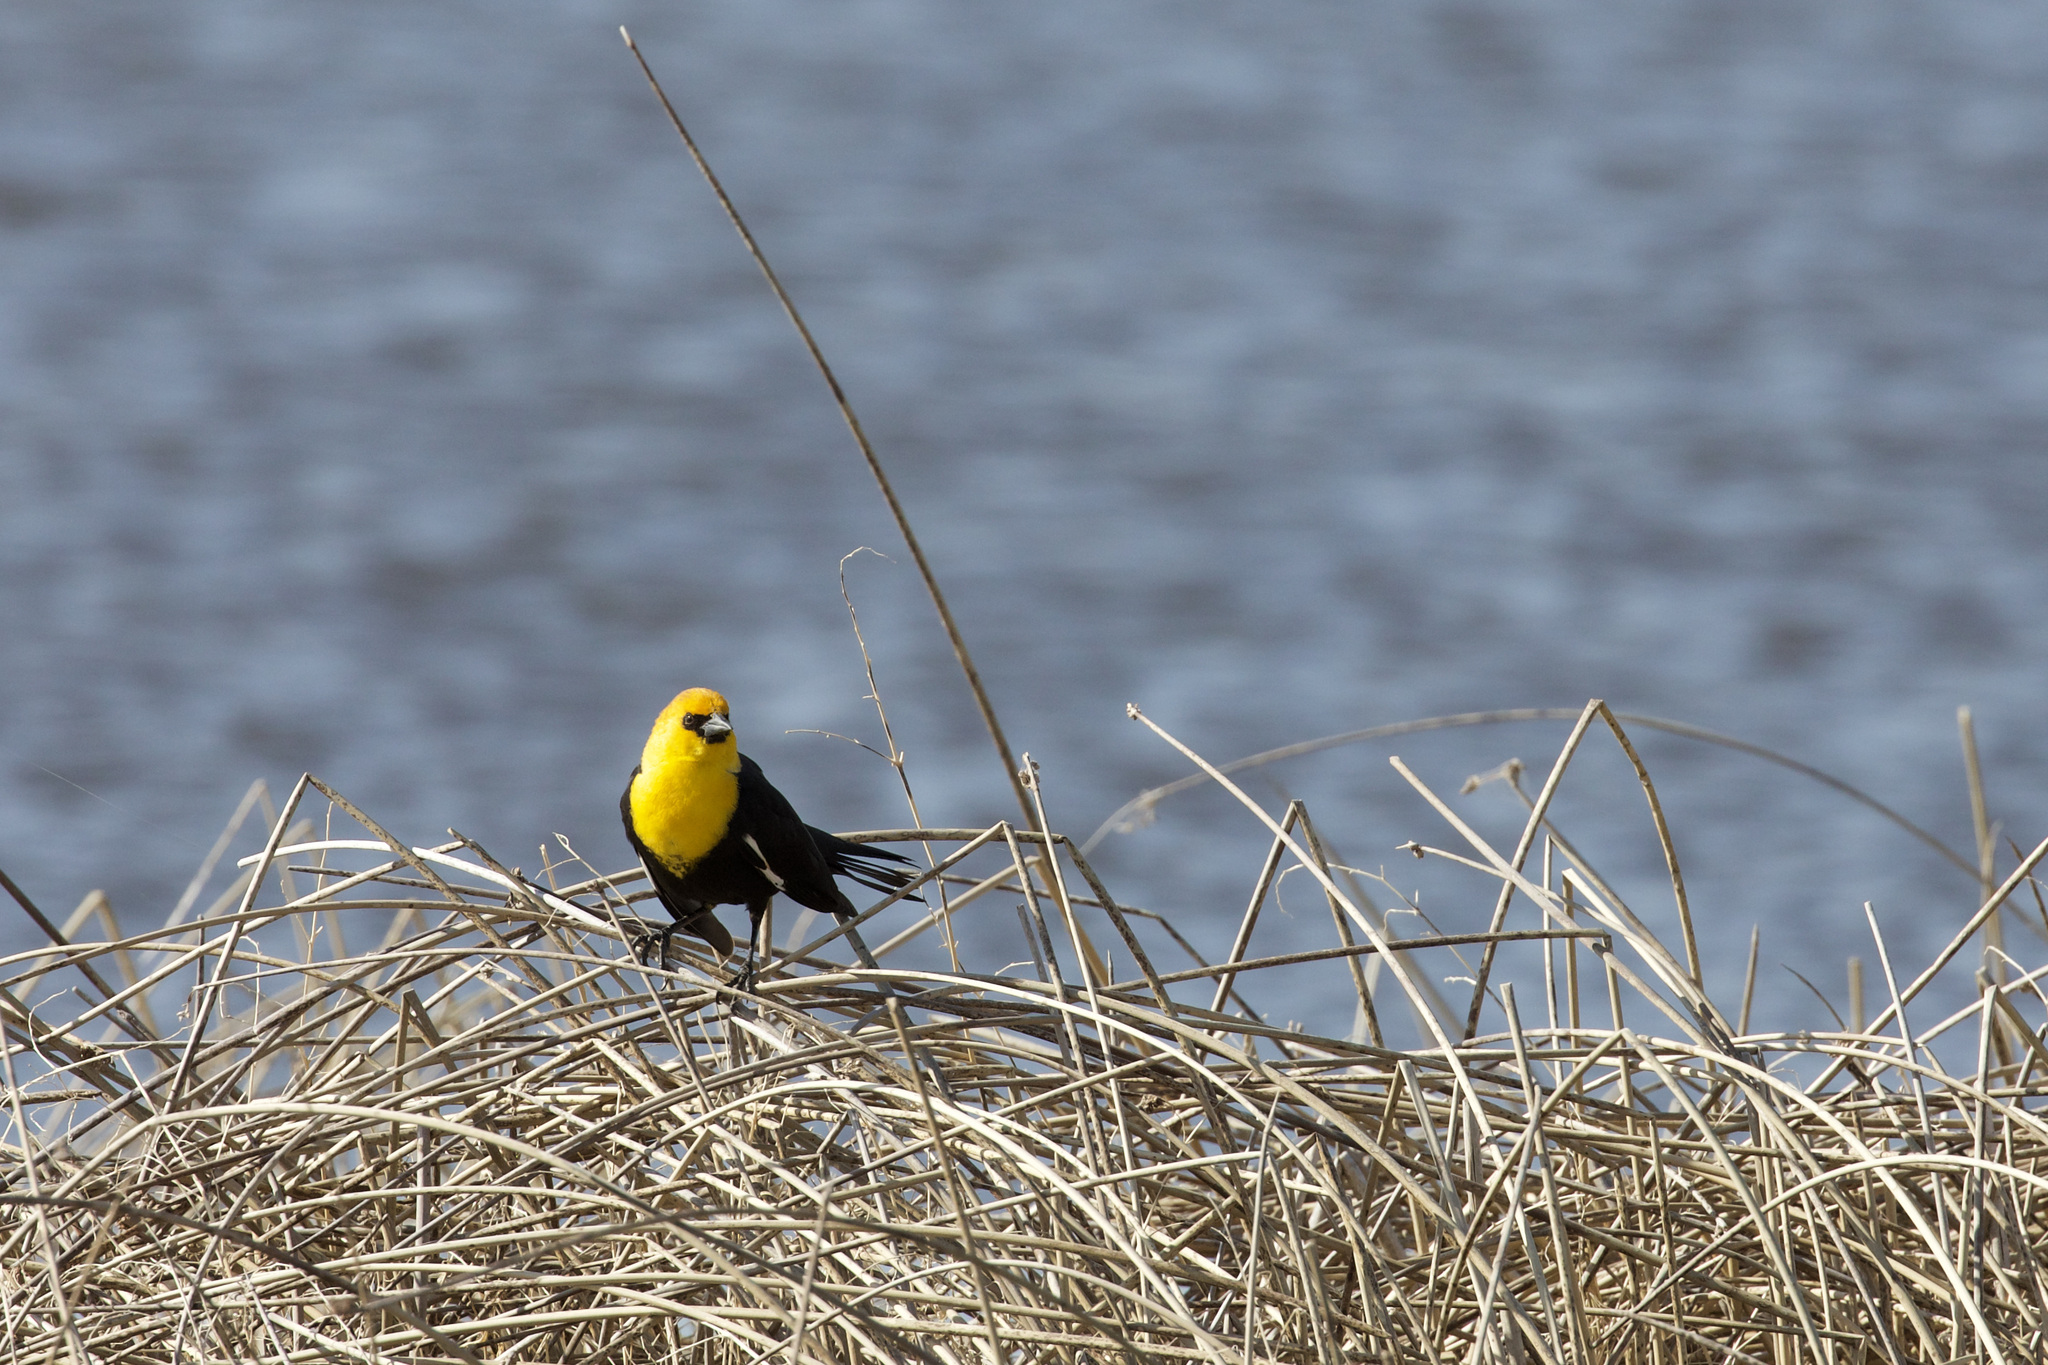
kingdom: Animalia
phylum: Chordata
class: Aves
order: Passeriformes
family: Icteridae
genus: Xanthocephalus
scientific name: Xanthocephalus xanthocephalus
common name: Yellow-headed blackbird
